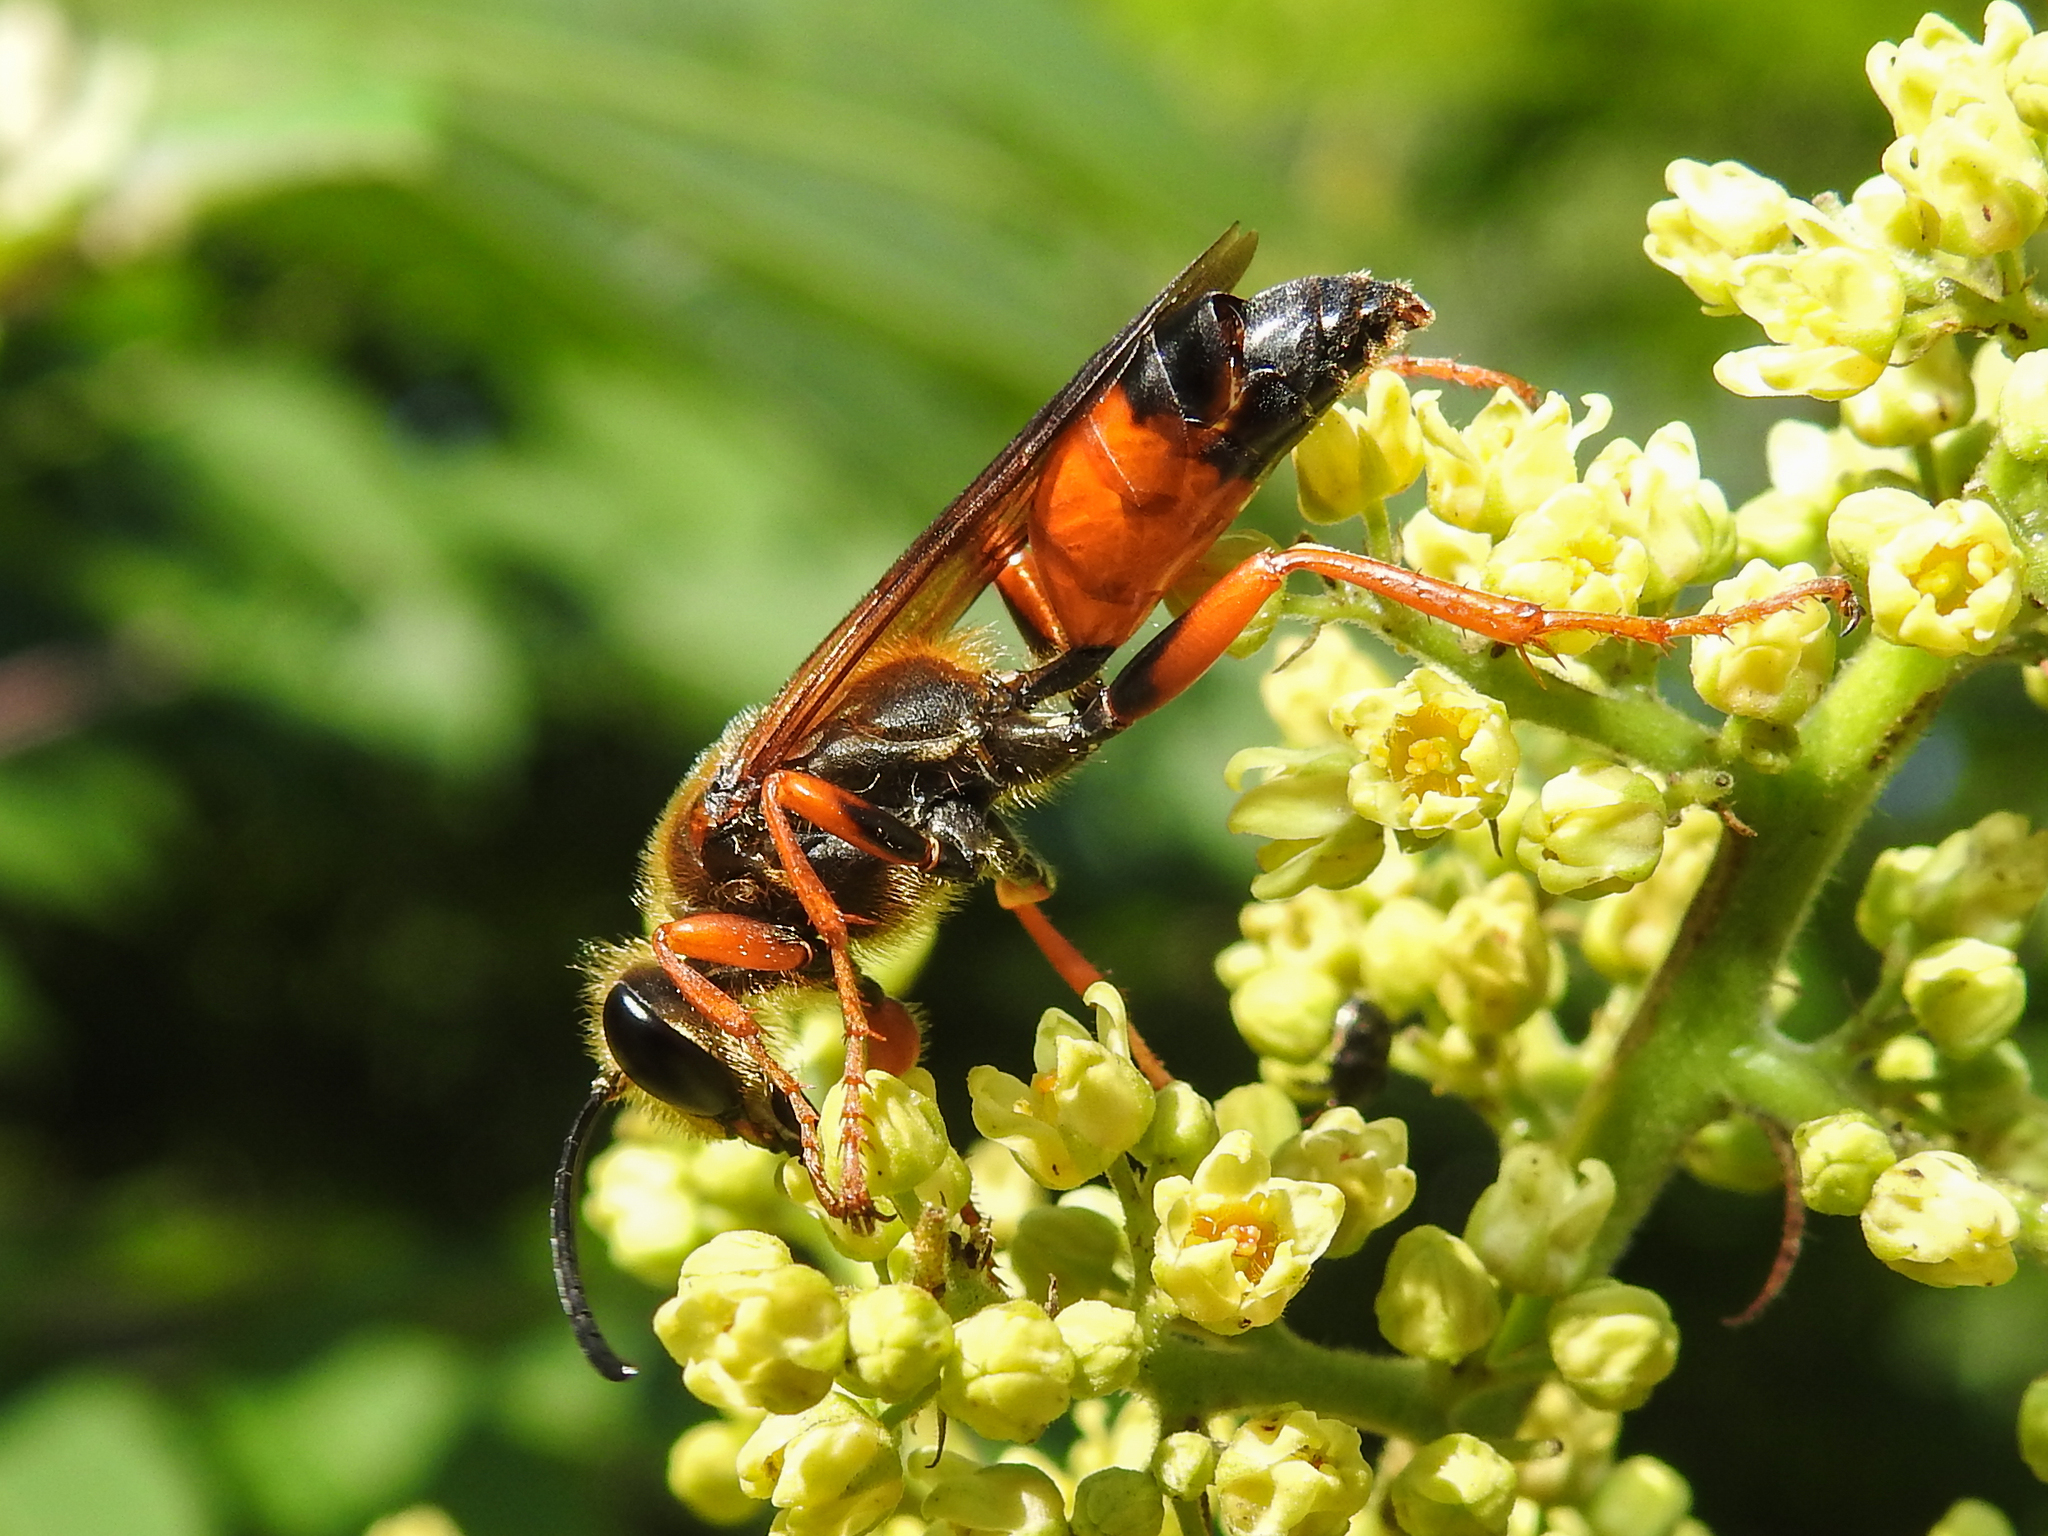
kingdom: Animalia
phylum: Arthropoda
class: Insecta
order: Hymenoptera
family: Sphecidae
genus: Sphex
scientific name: Sphex ichneumoneus
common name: Great golden digger wasp
